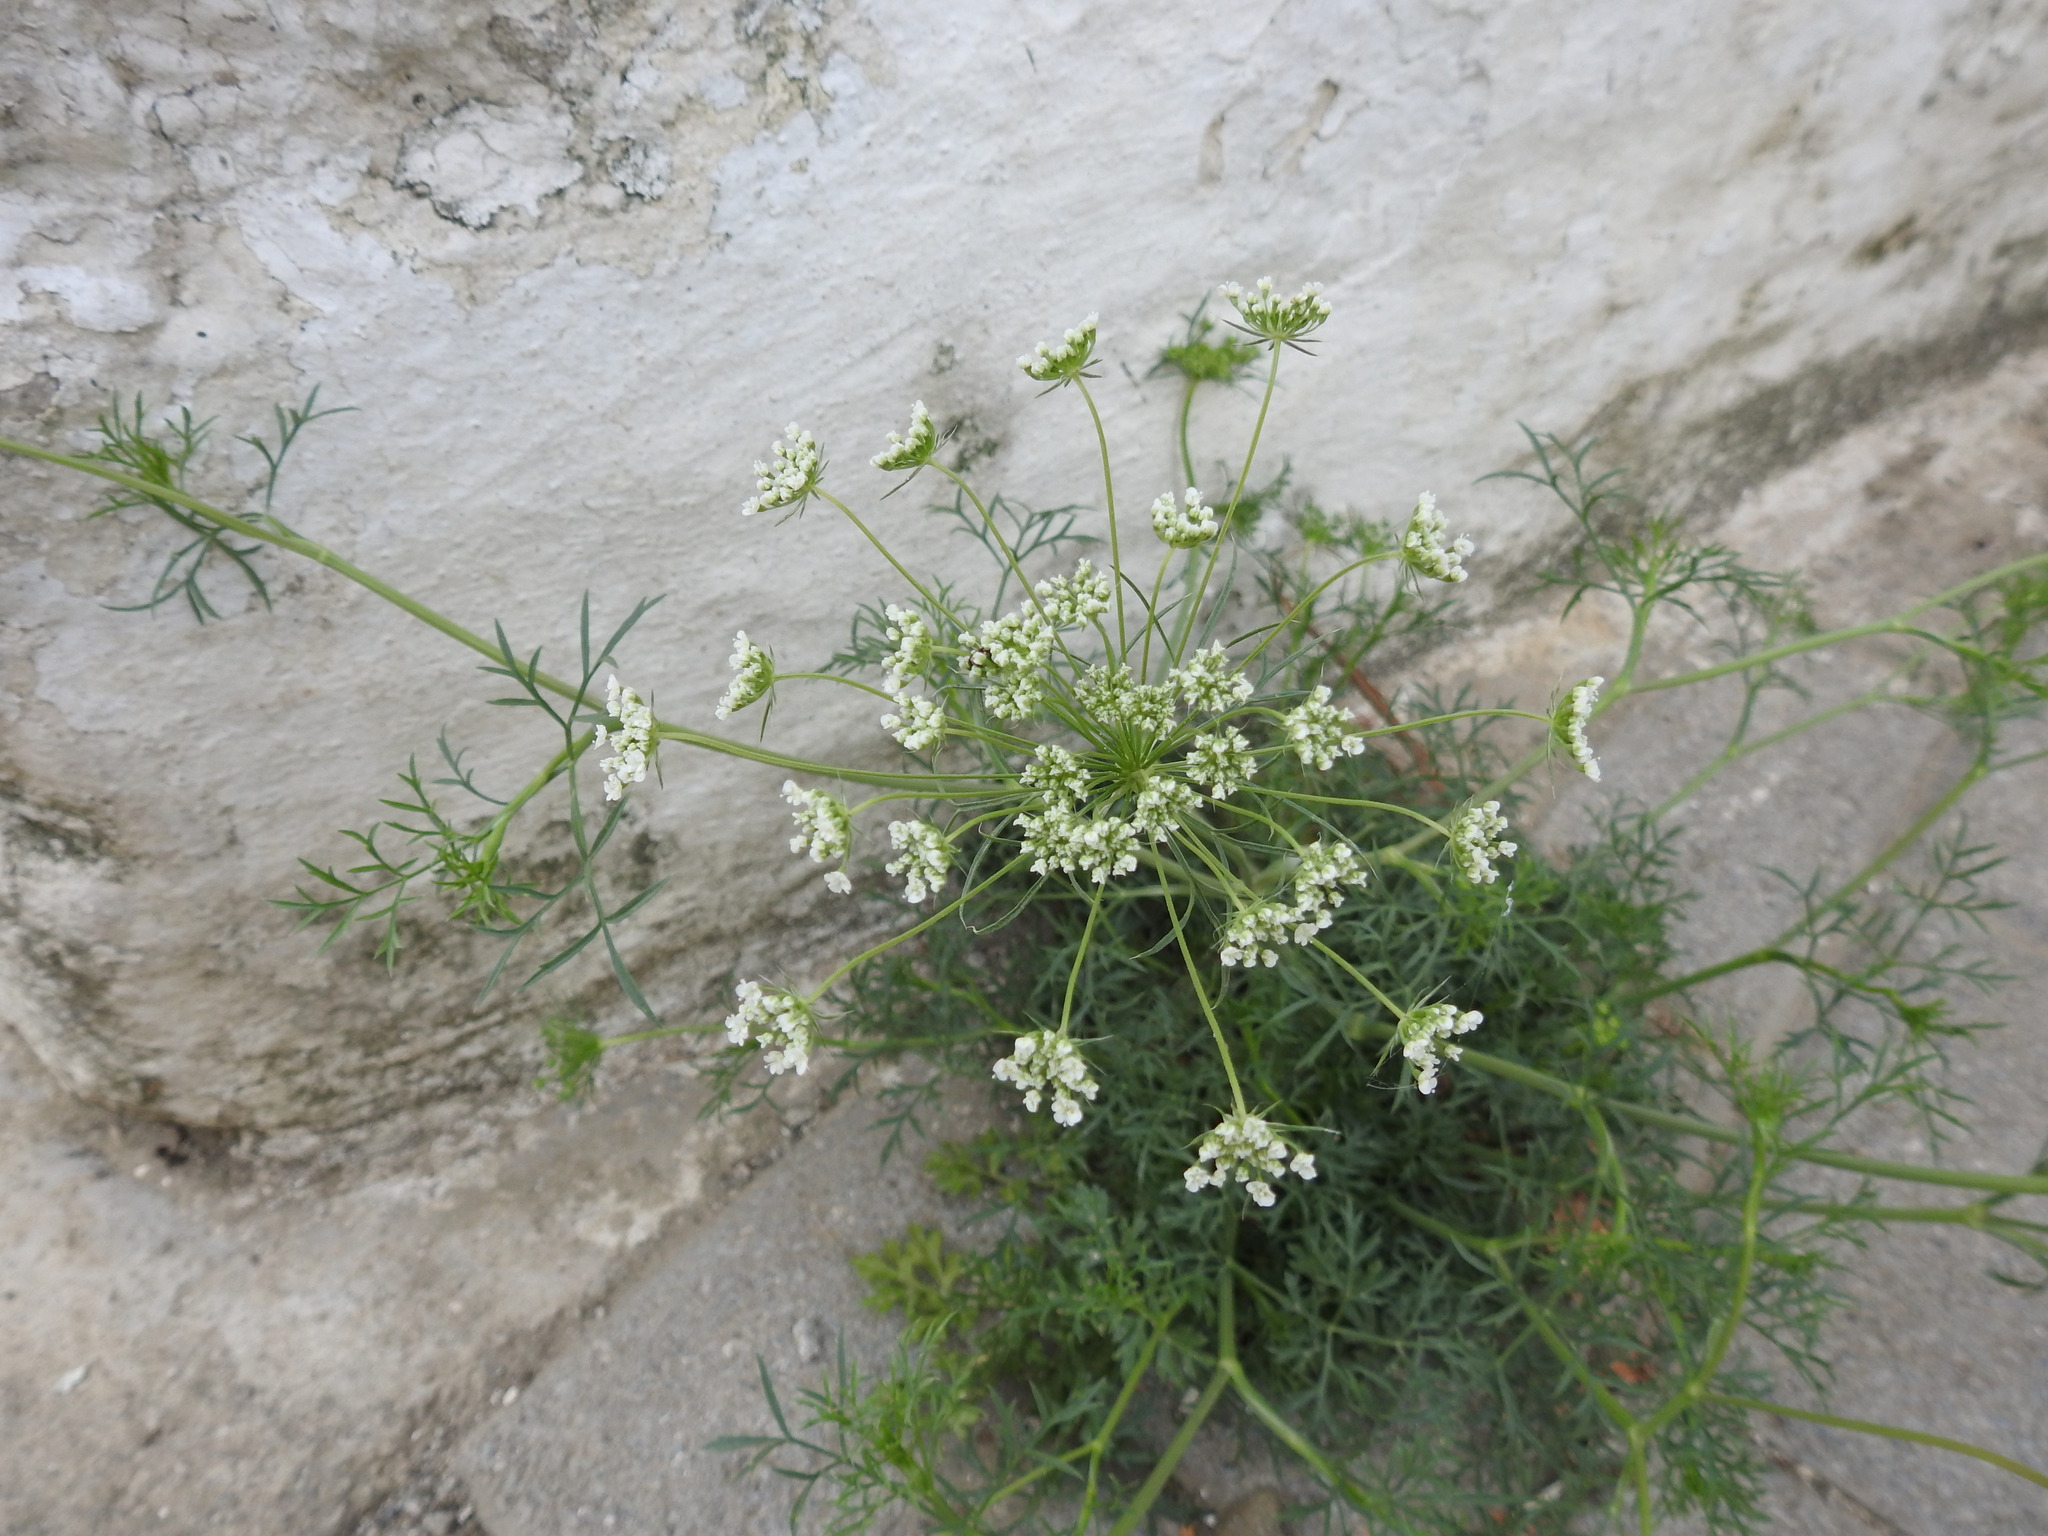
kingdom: Plantae
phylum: Tracheophyta
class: Magnoliopsida
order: Apiales
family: Apiaceae
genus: Bunium
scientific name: Bunium ferulaceum
